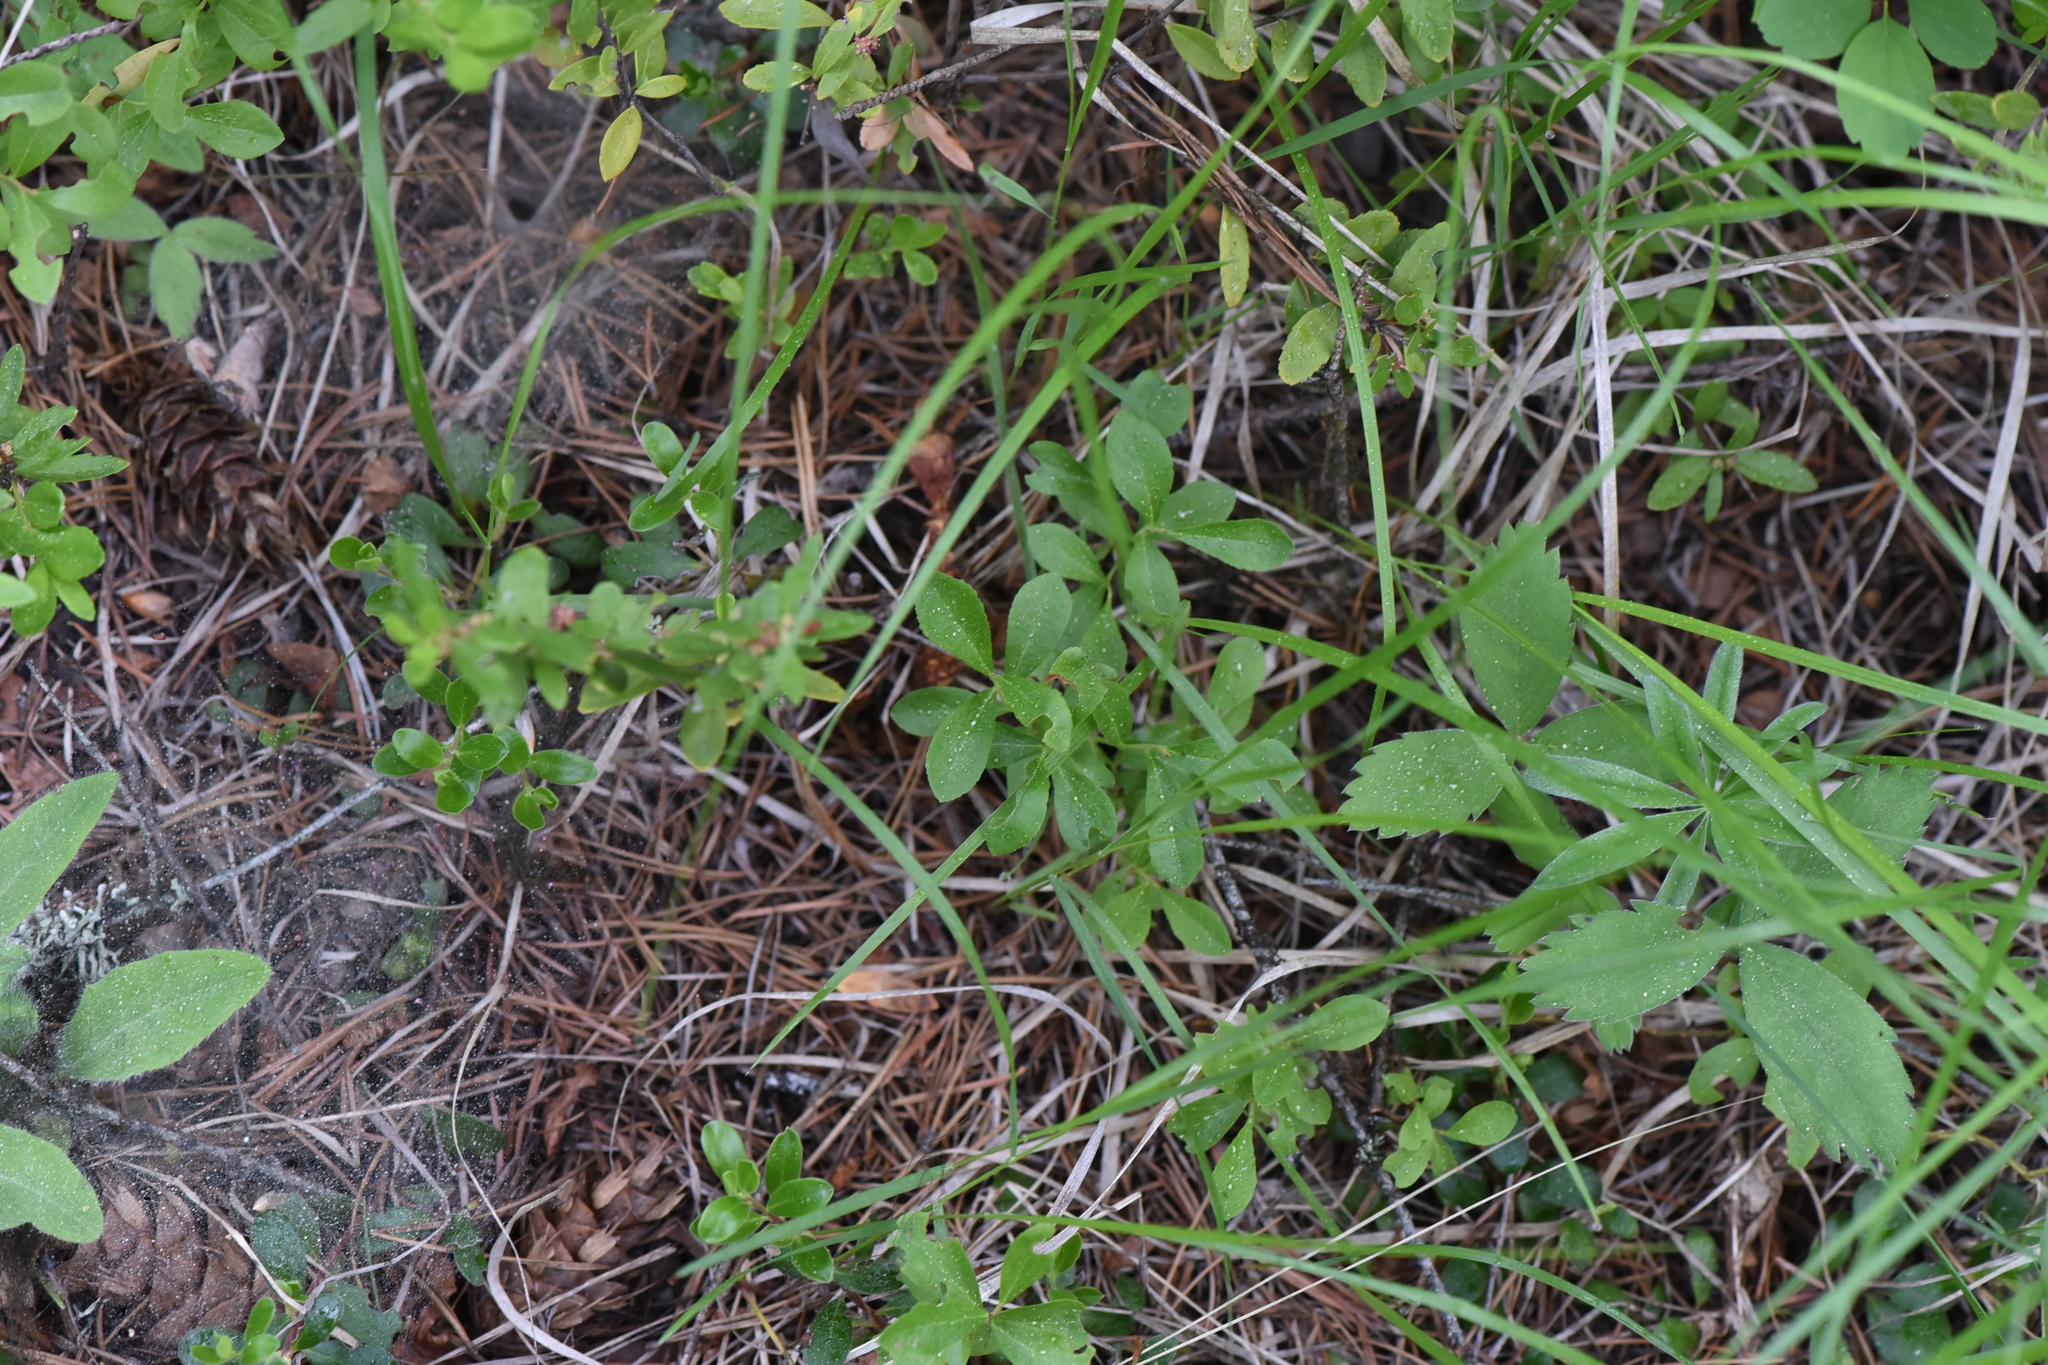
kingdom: Plantae
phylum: Tracheophyta
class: Magnoliopsida
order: Rosales
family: Rosaceae
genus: Fragaria
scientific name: Fragaria virginiana
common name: Thickleaved wild strawberry
